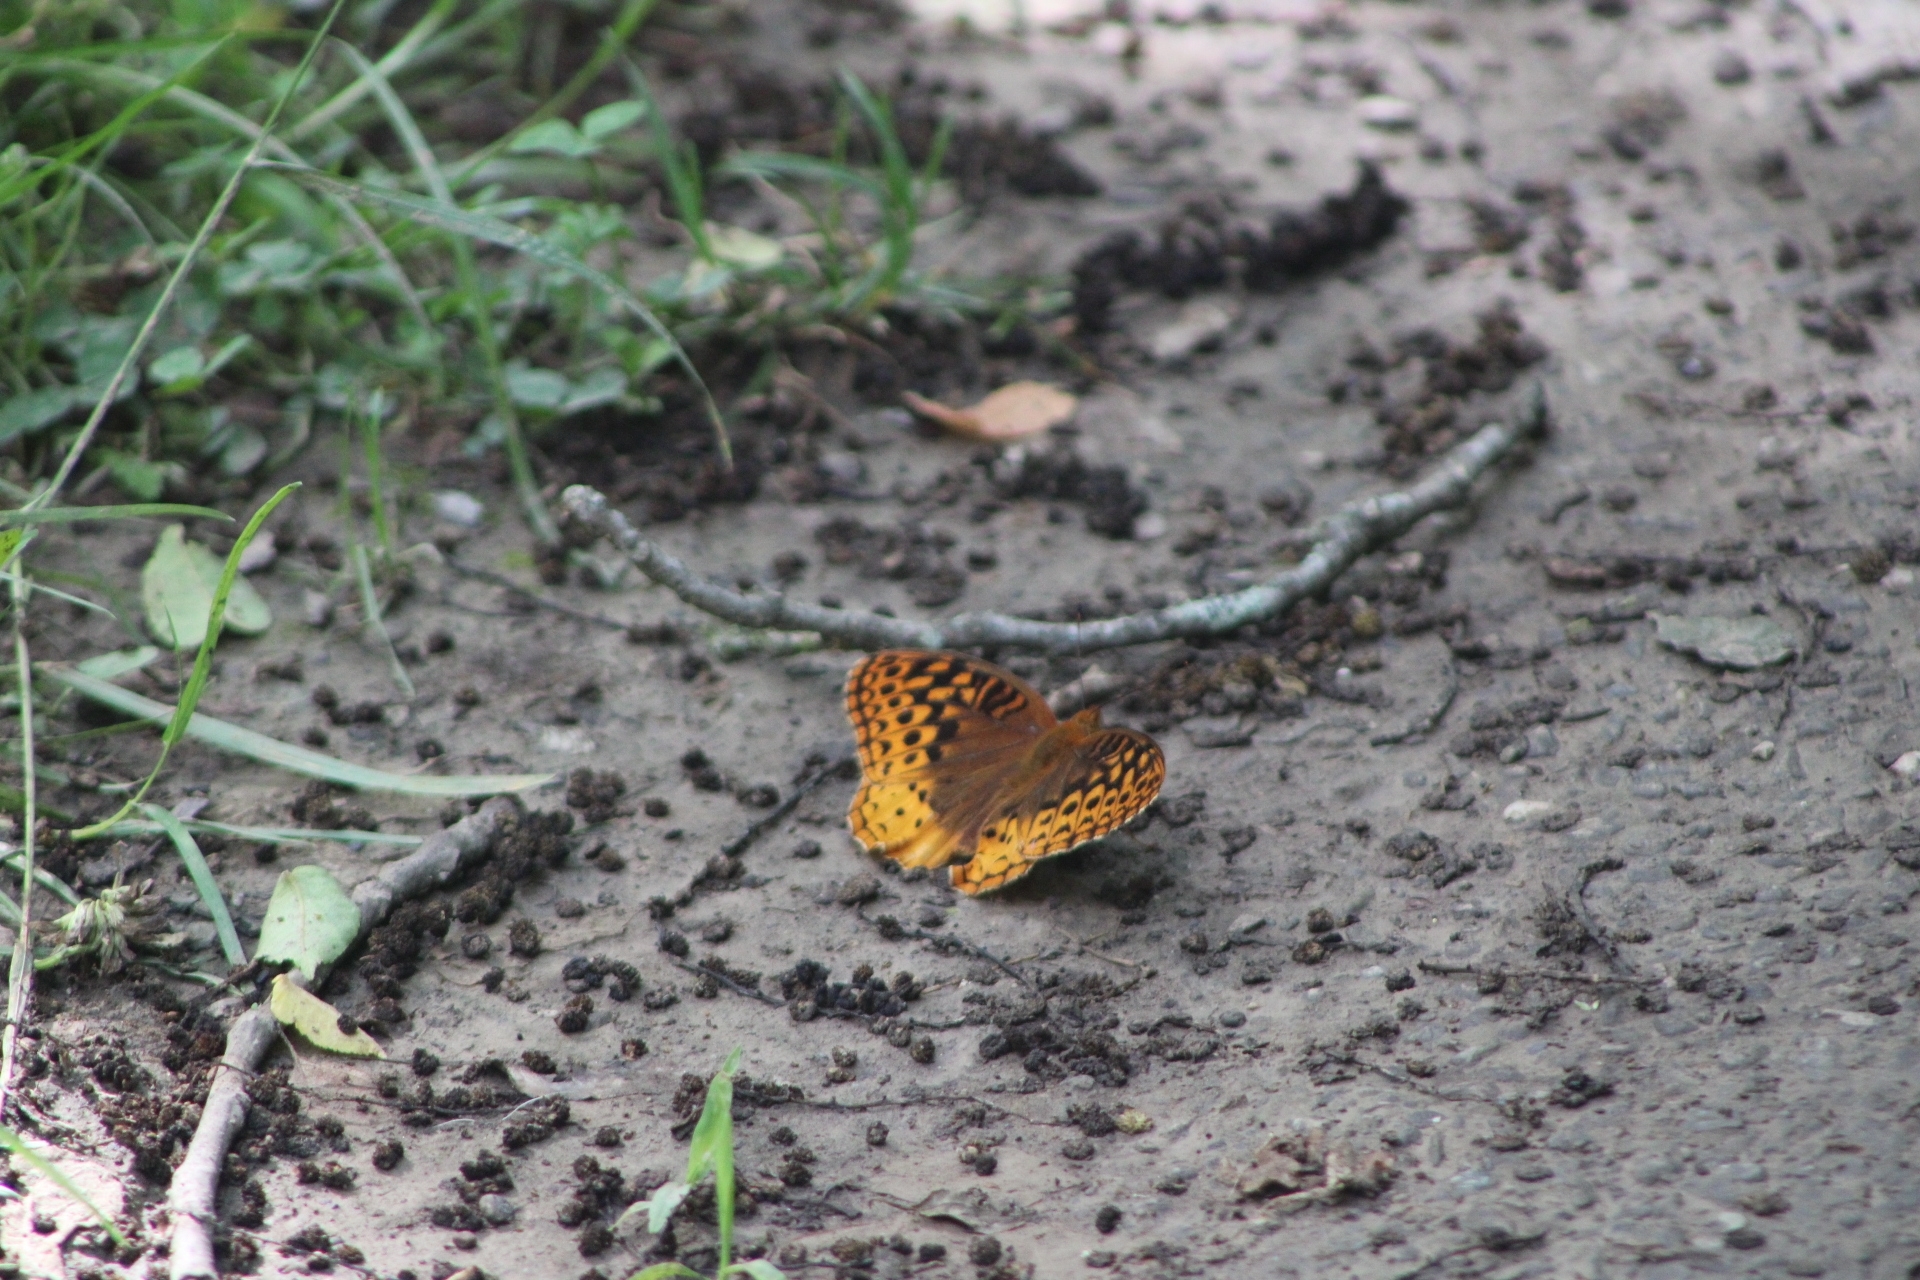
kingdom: Animalia
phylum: Arthropoda
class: Insecta
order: Lepidoptera
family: Nymphalidae
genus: Speyeria
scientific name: Speyeria cybele
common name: Great spangled fritillary
